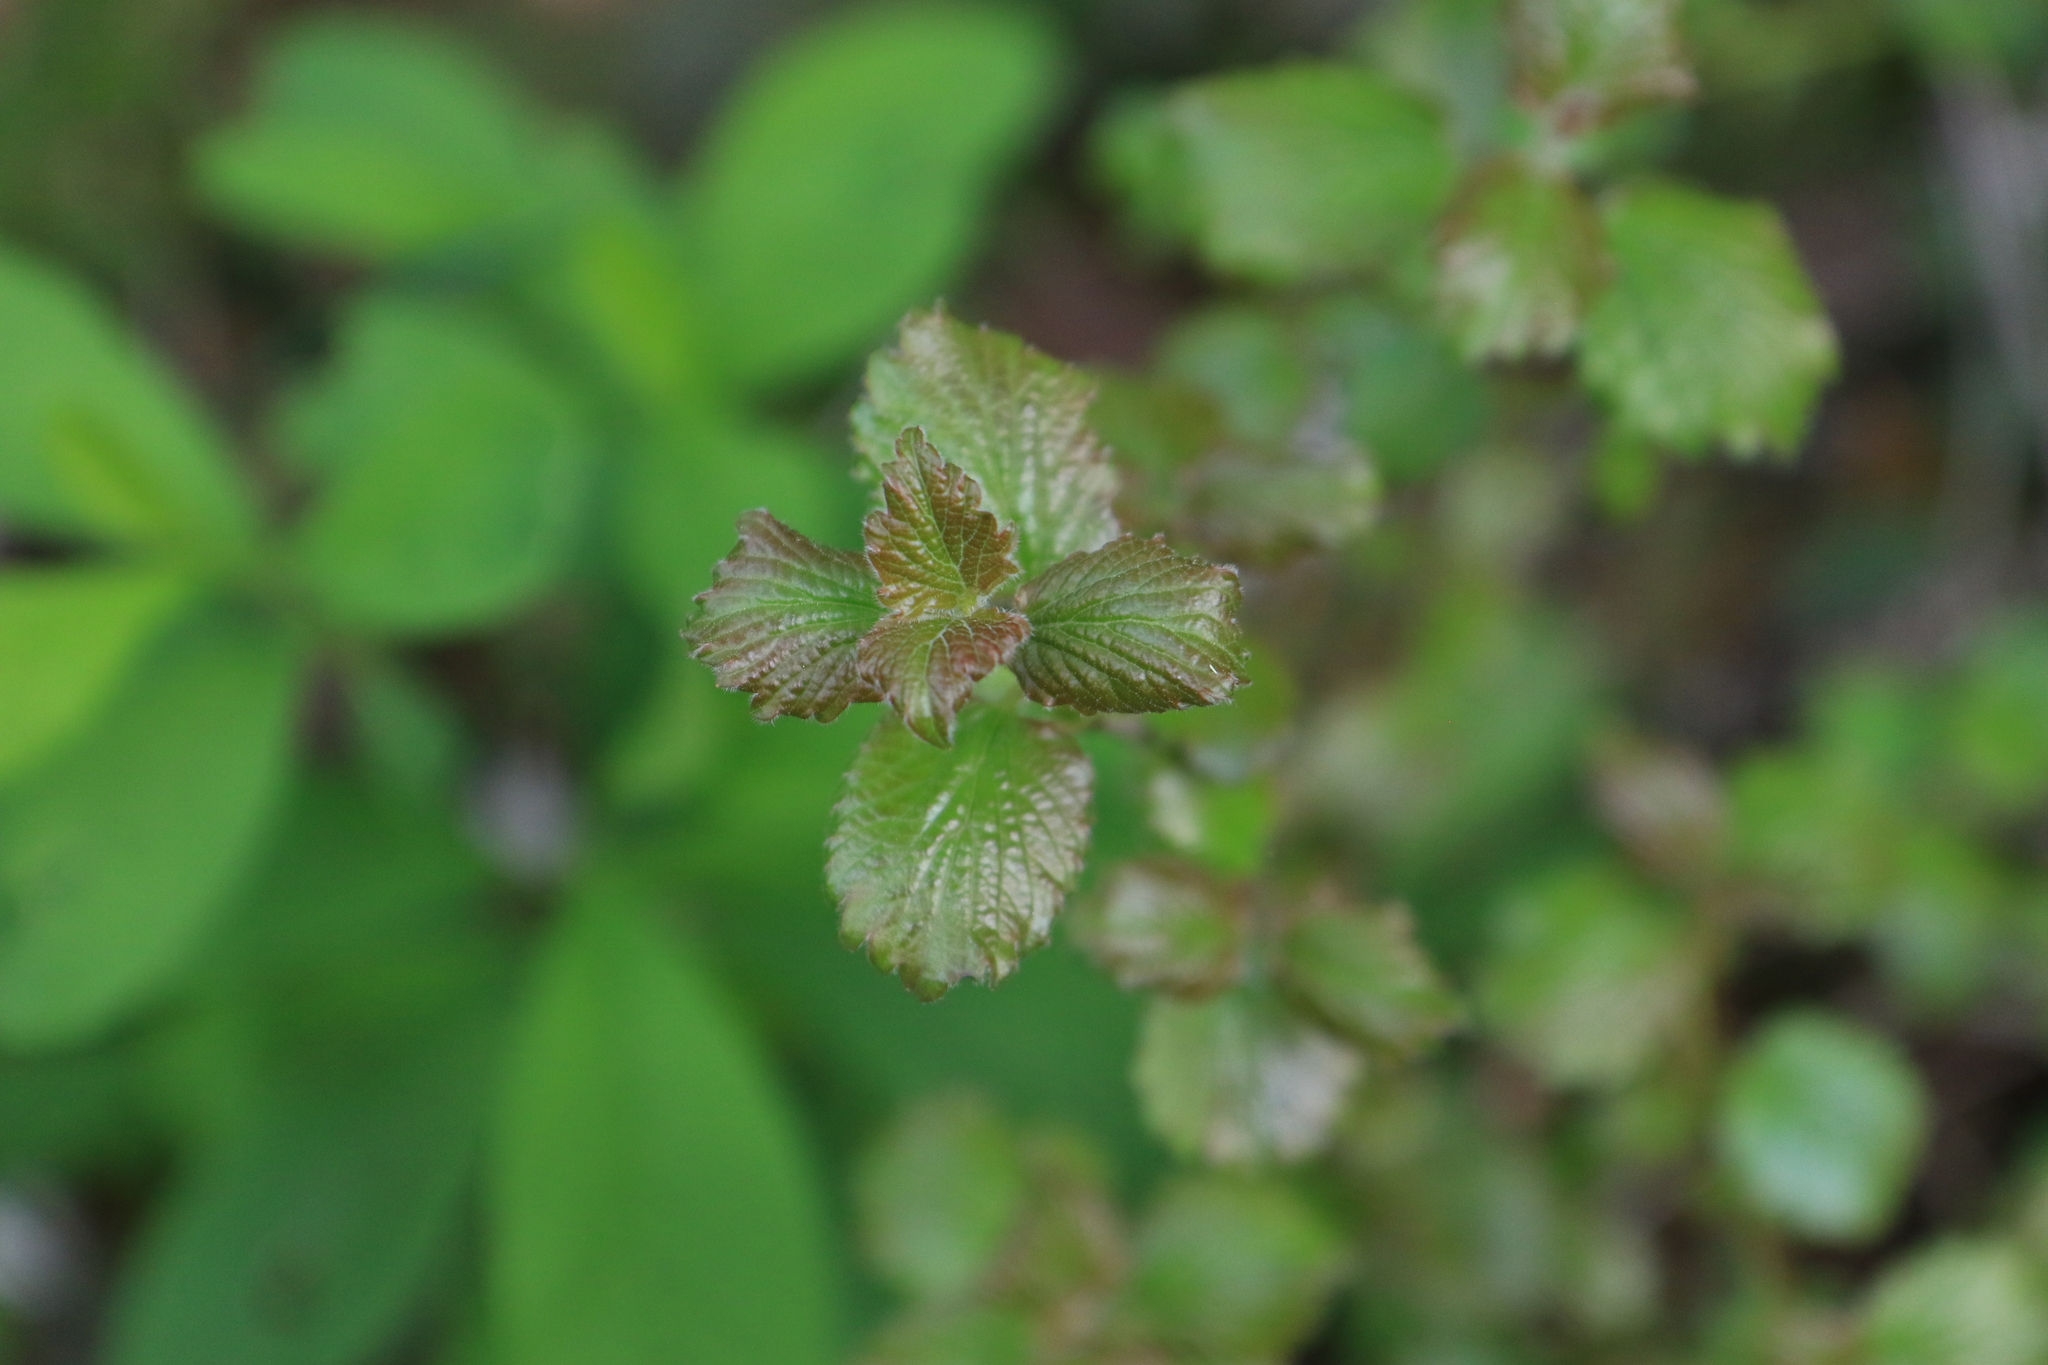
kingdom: Plantae
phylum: Tracheophyta
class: Magnoliopsida
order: Dipsacales
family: Viburnaceae
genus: Viburnum
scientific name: Viburnum ellipticum
